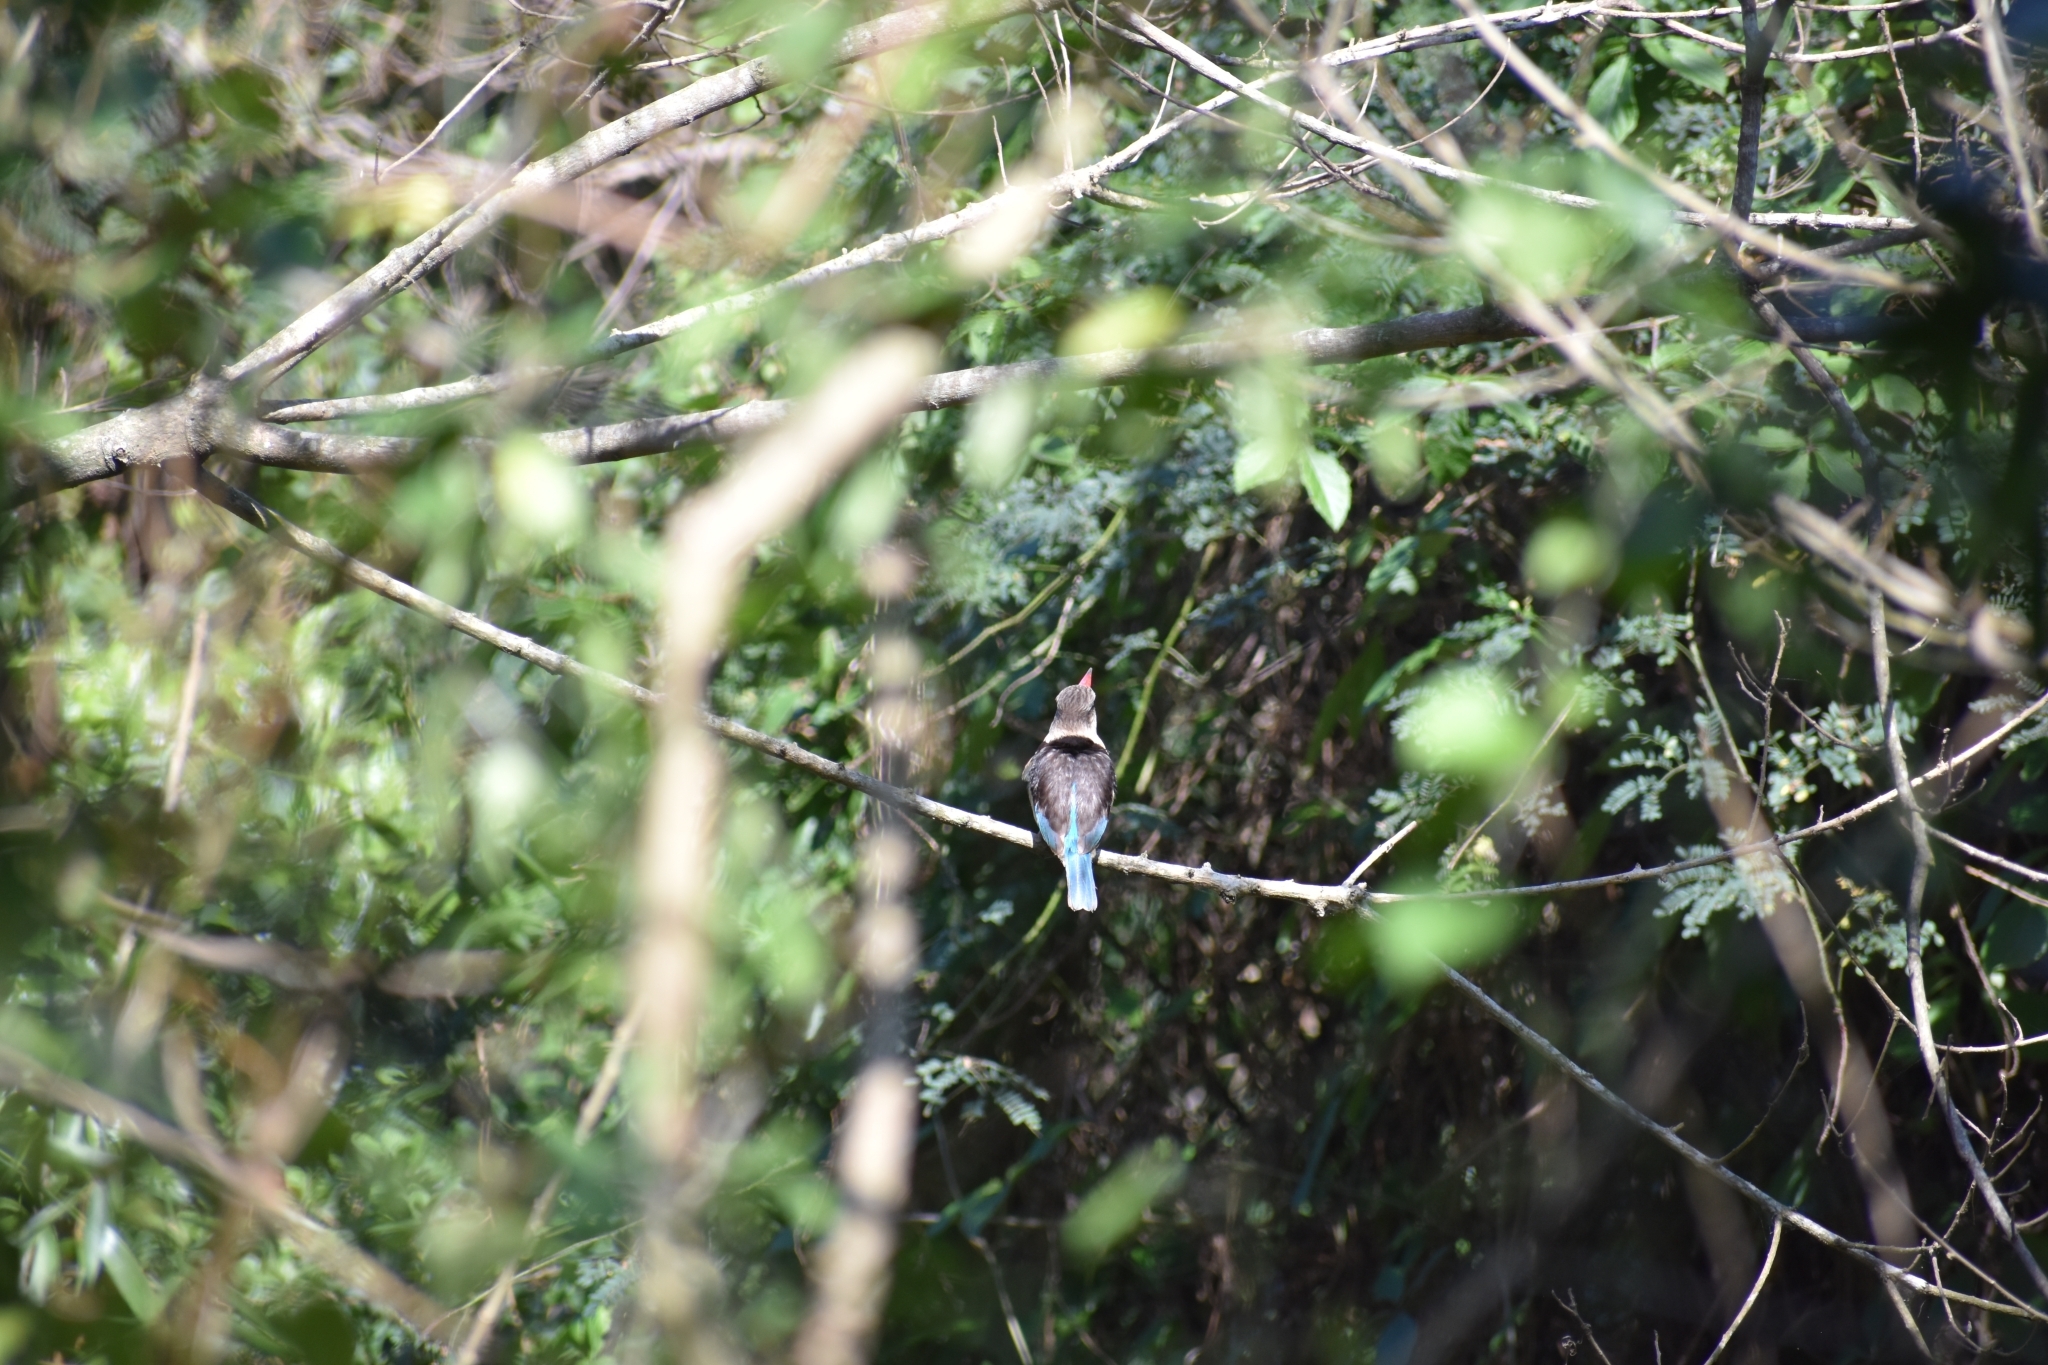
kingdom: Animalia
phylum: Chordata
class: Aves
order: Coraciiformes
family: Alcedinidae
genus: Halcyon
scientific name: Halcyon albiventris
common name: Brown-hooded kingfisher
